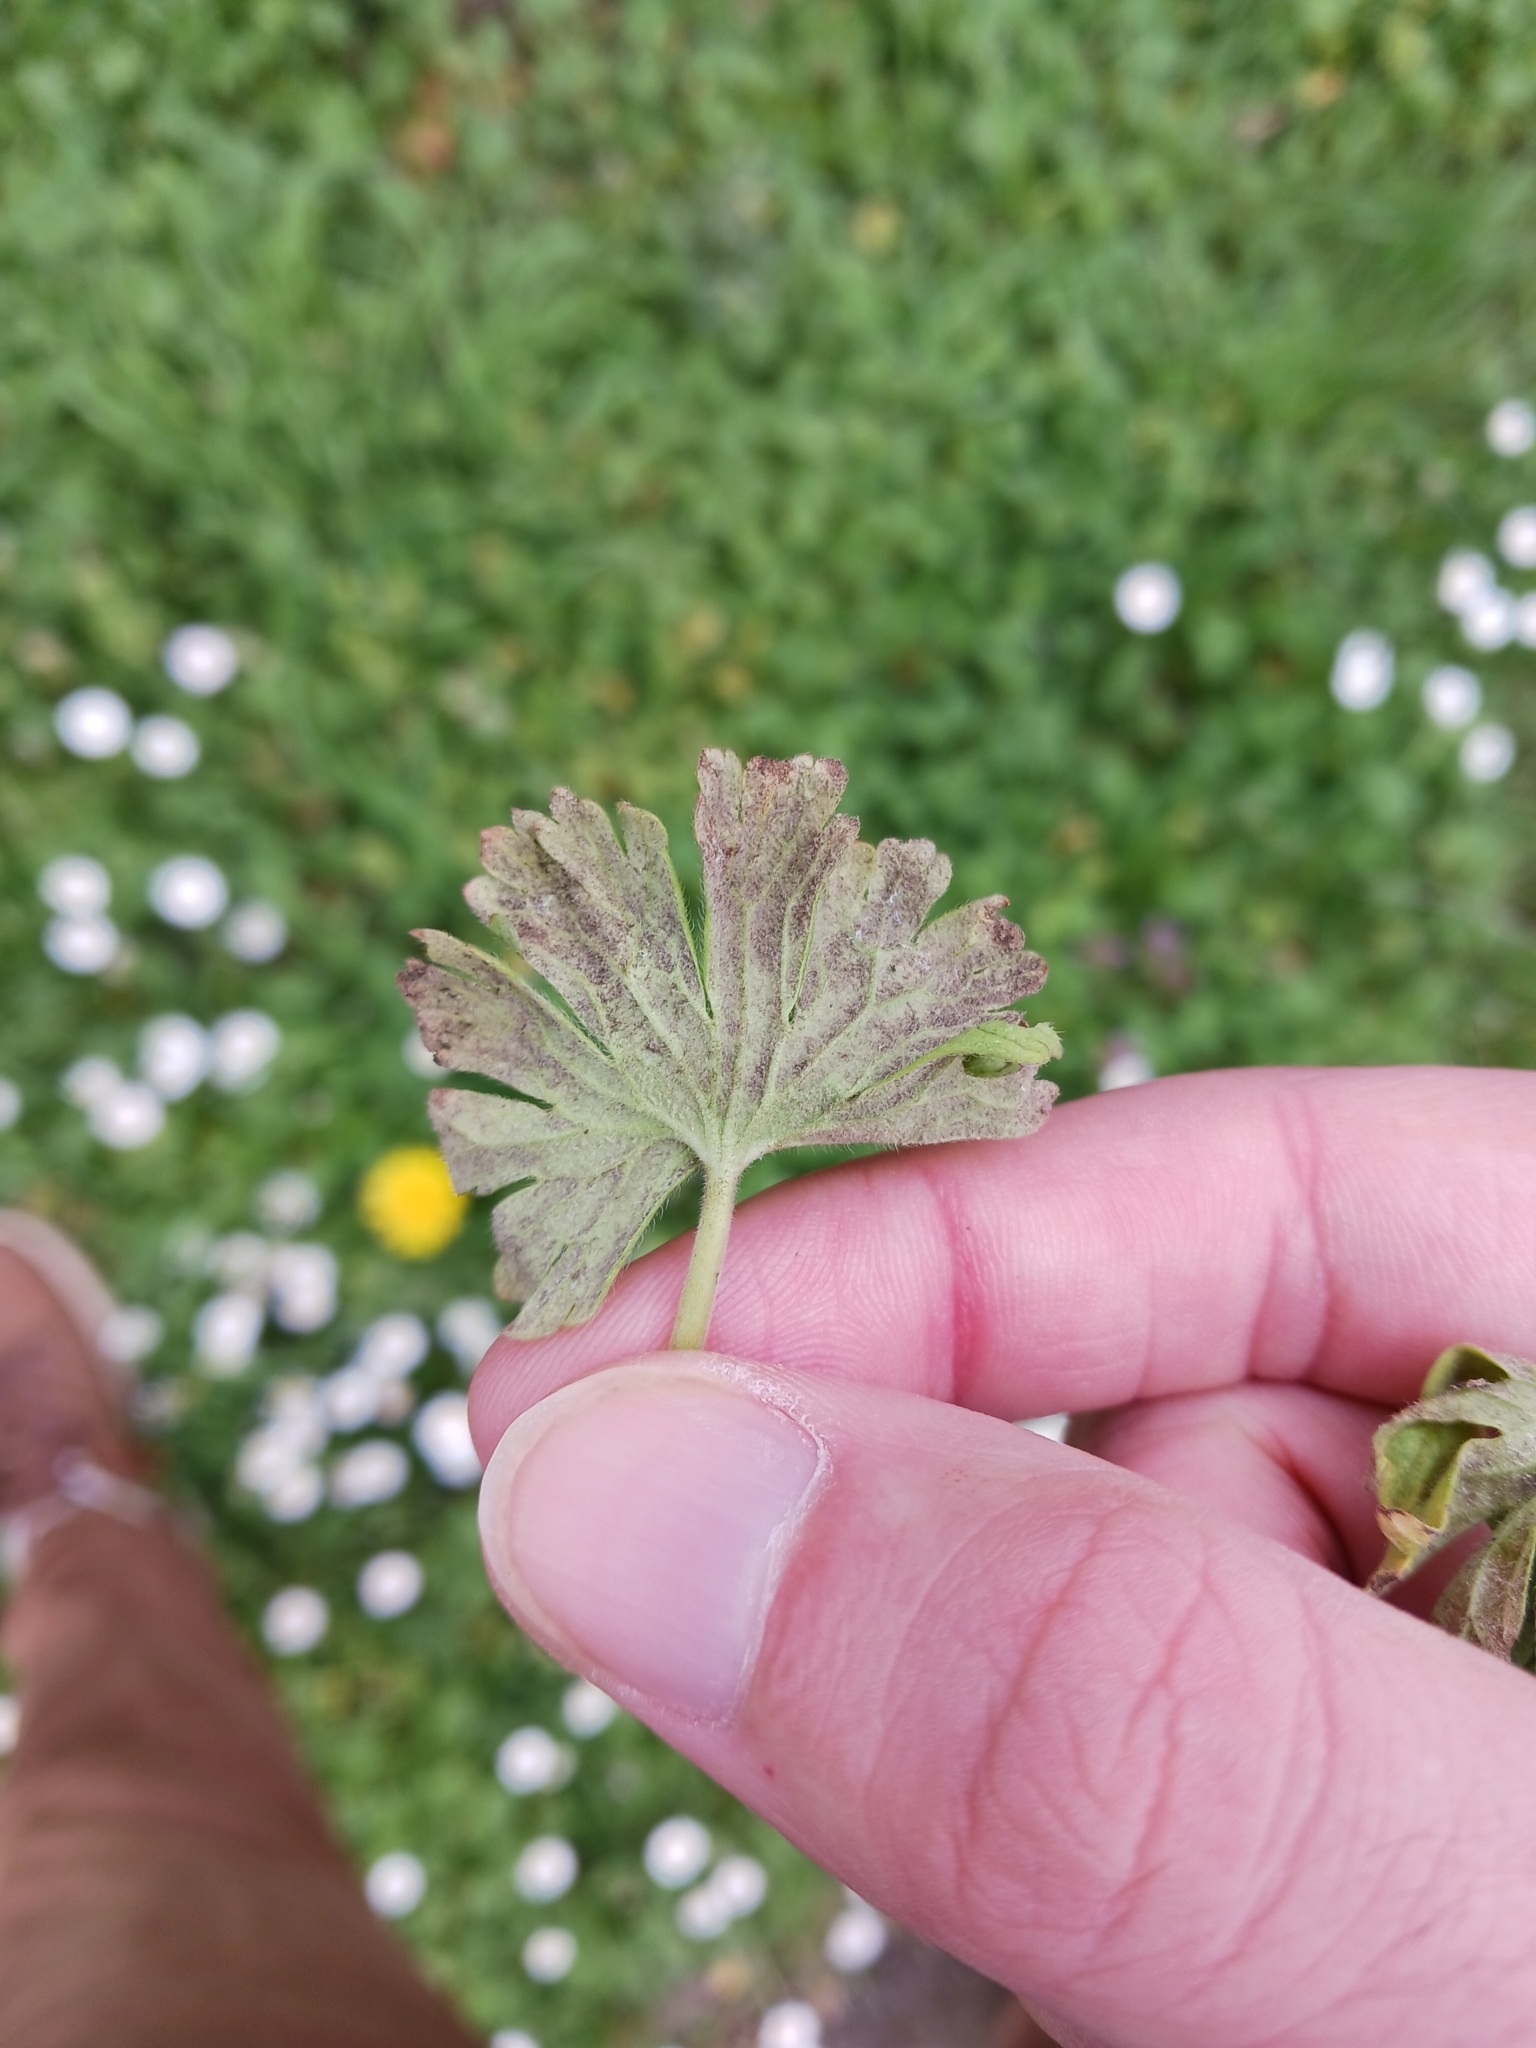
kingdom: Chromista
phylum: Oomycota
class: Peronosporea
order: Peronosporales
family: Peronosporaceae
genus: Peronospora
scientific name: Peronospora conglomerata
